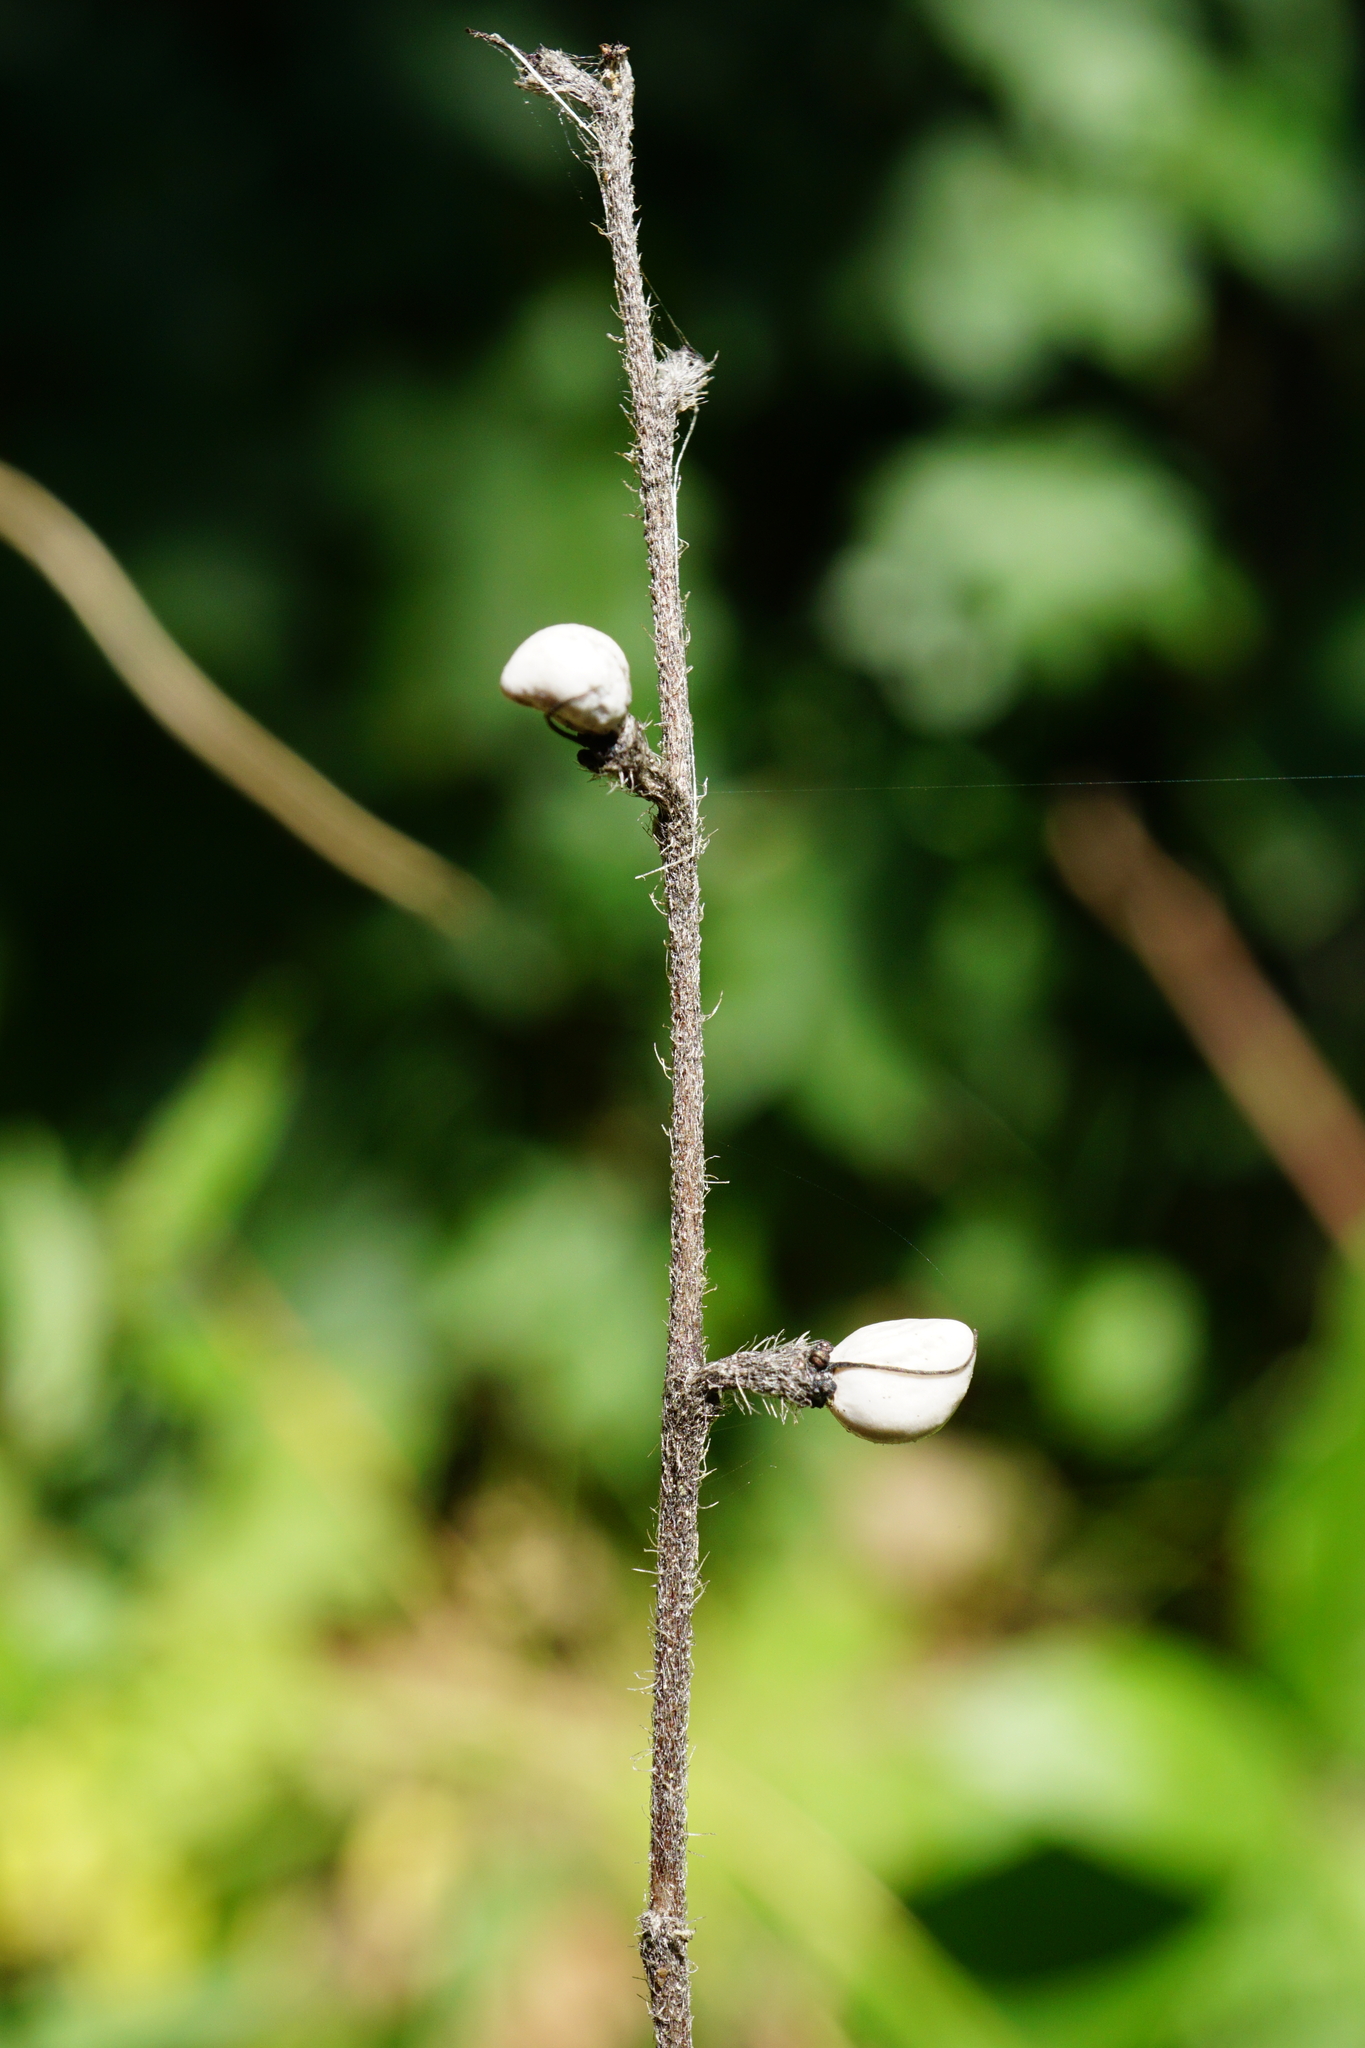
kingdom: Plantae
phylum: Tracheophyta
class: Magnoliopsida
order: Boraginales
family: Boraginaceae
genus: Aegonychon
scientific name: Aegonychon purpurocaeruleum
